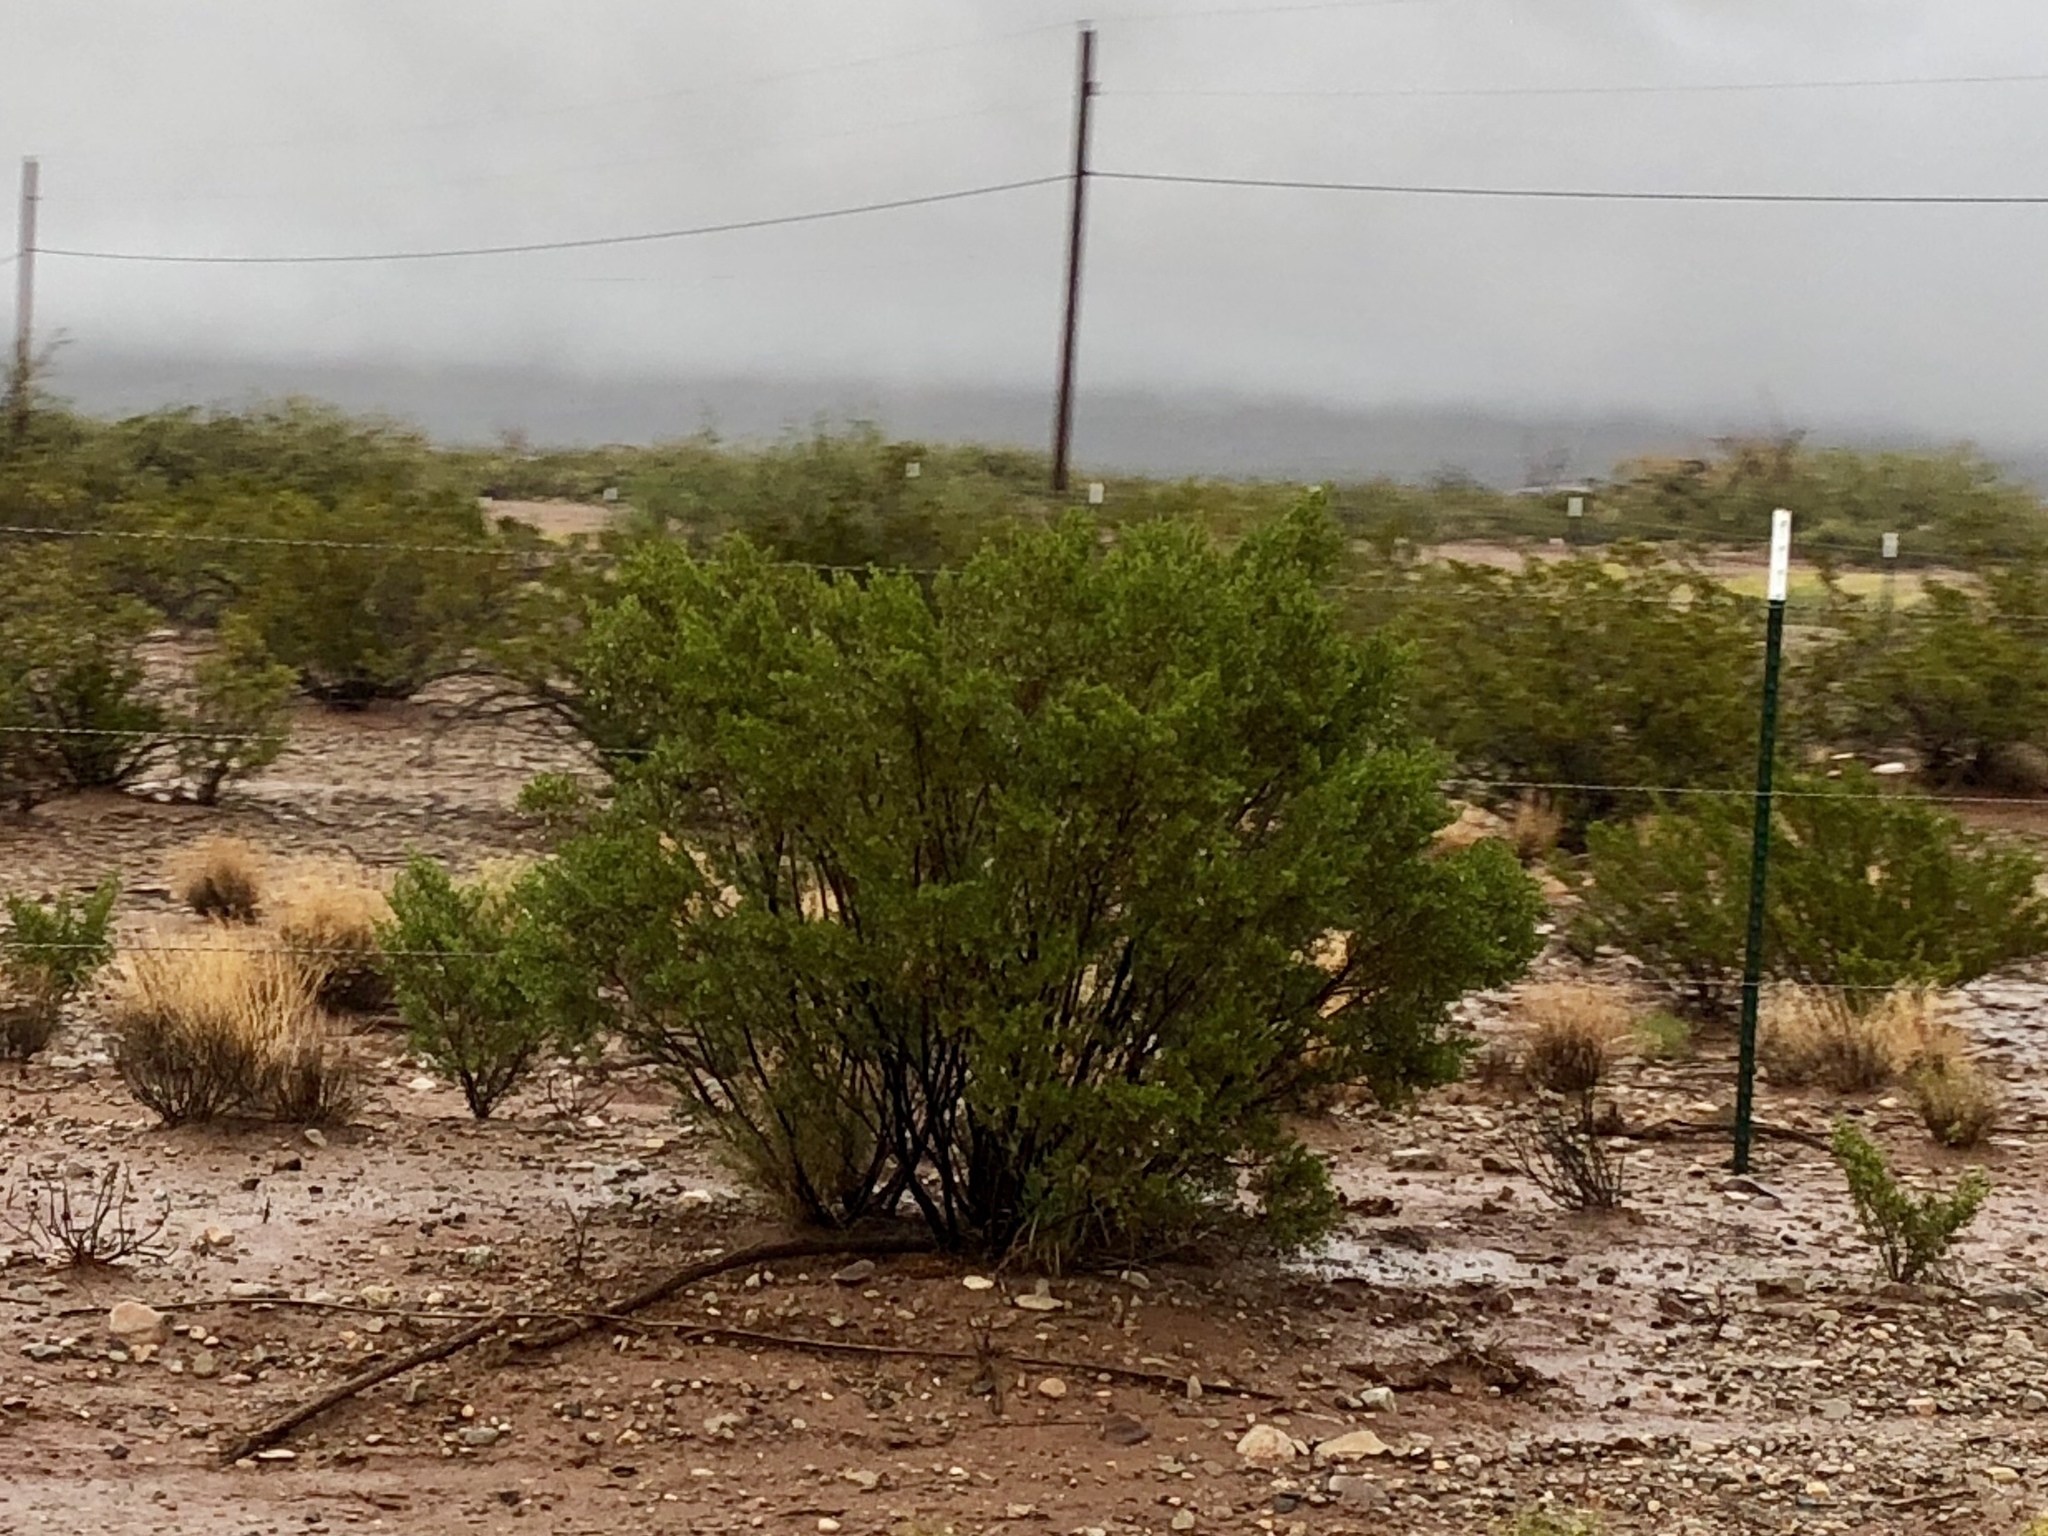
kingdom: Plantae
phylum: Tracheophyta
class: Magnoliopsida
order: Zygophyllales
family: Zygophyllaceae
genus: Larrea
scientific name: Larrea tridentata
